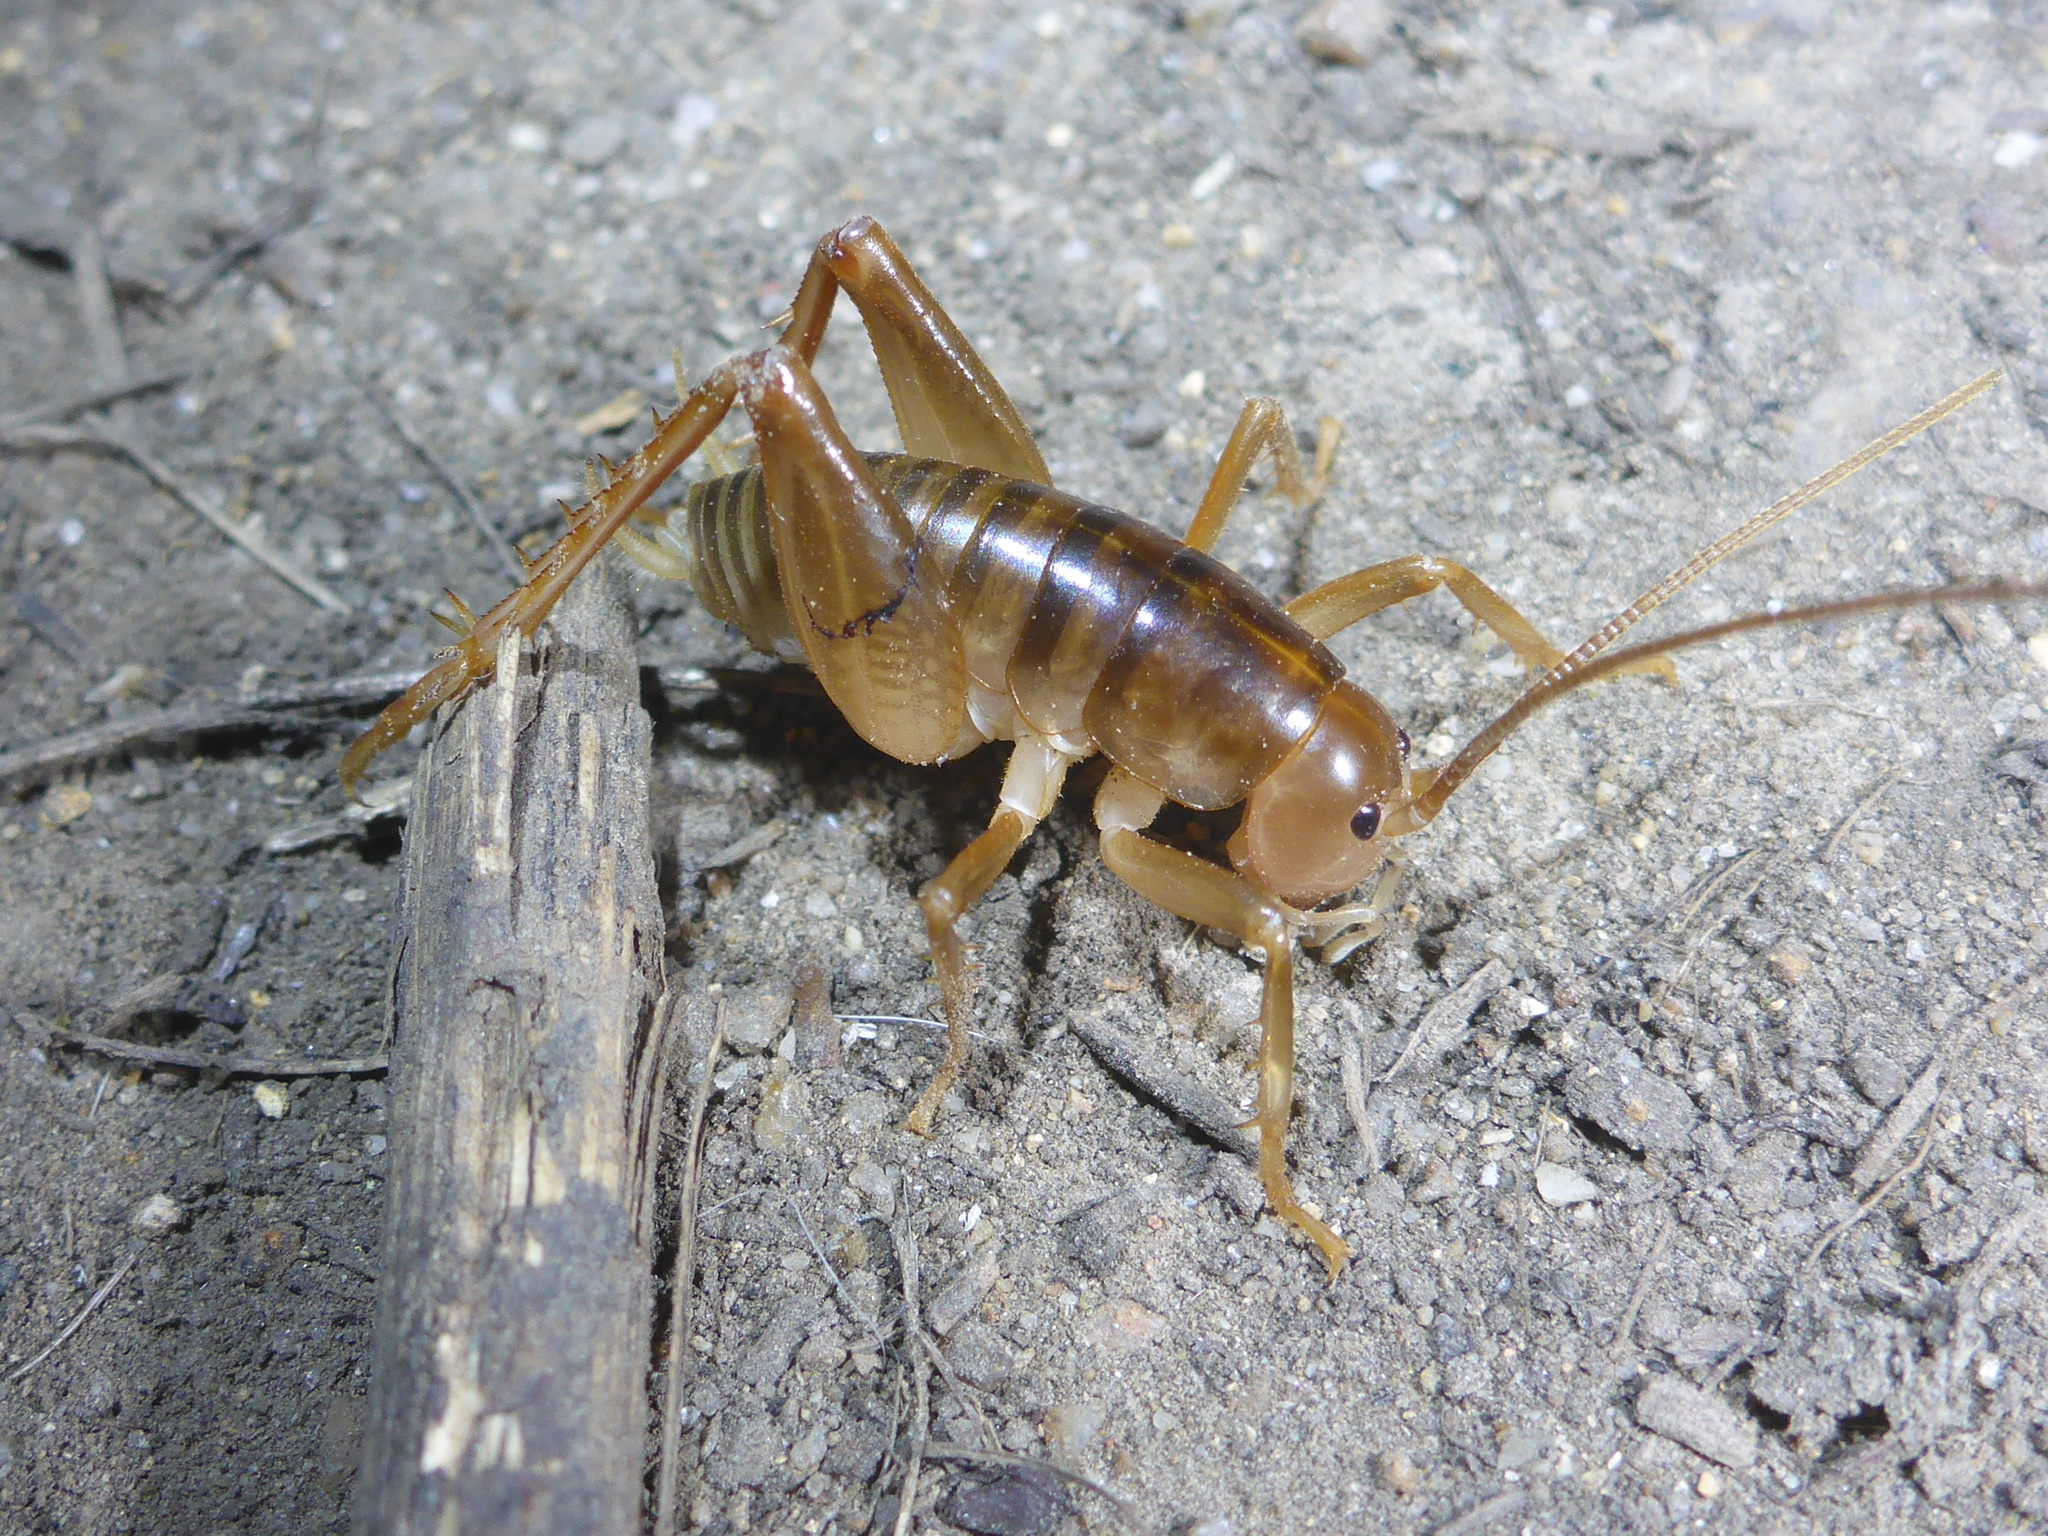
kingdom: Animalia
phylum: Arthropoda
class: Insecta
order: Orthoptera
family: Rhaphidophoridae
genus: Ceuthophilus
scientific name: Ceuthophilus californianus
